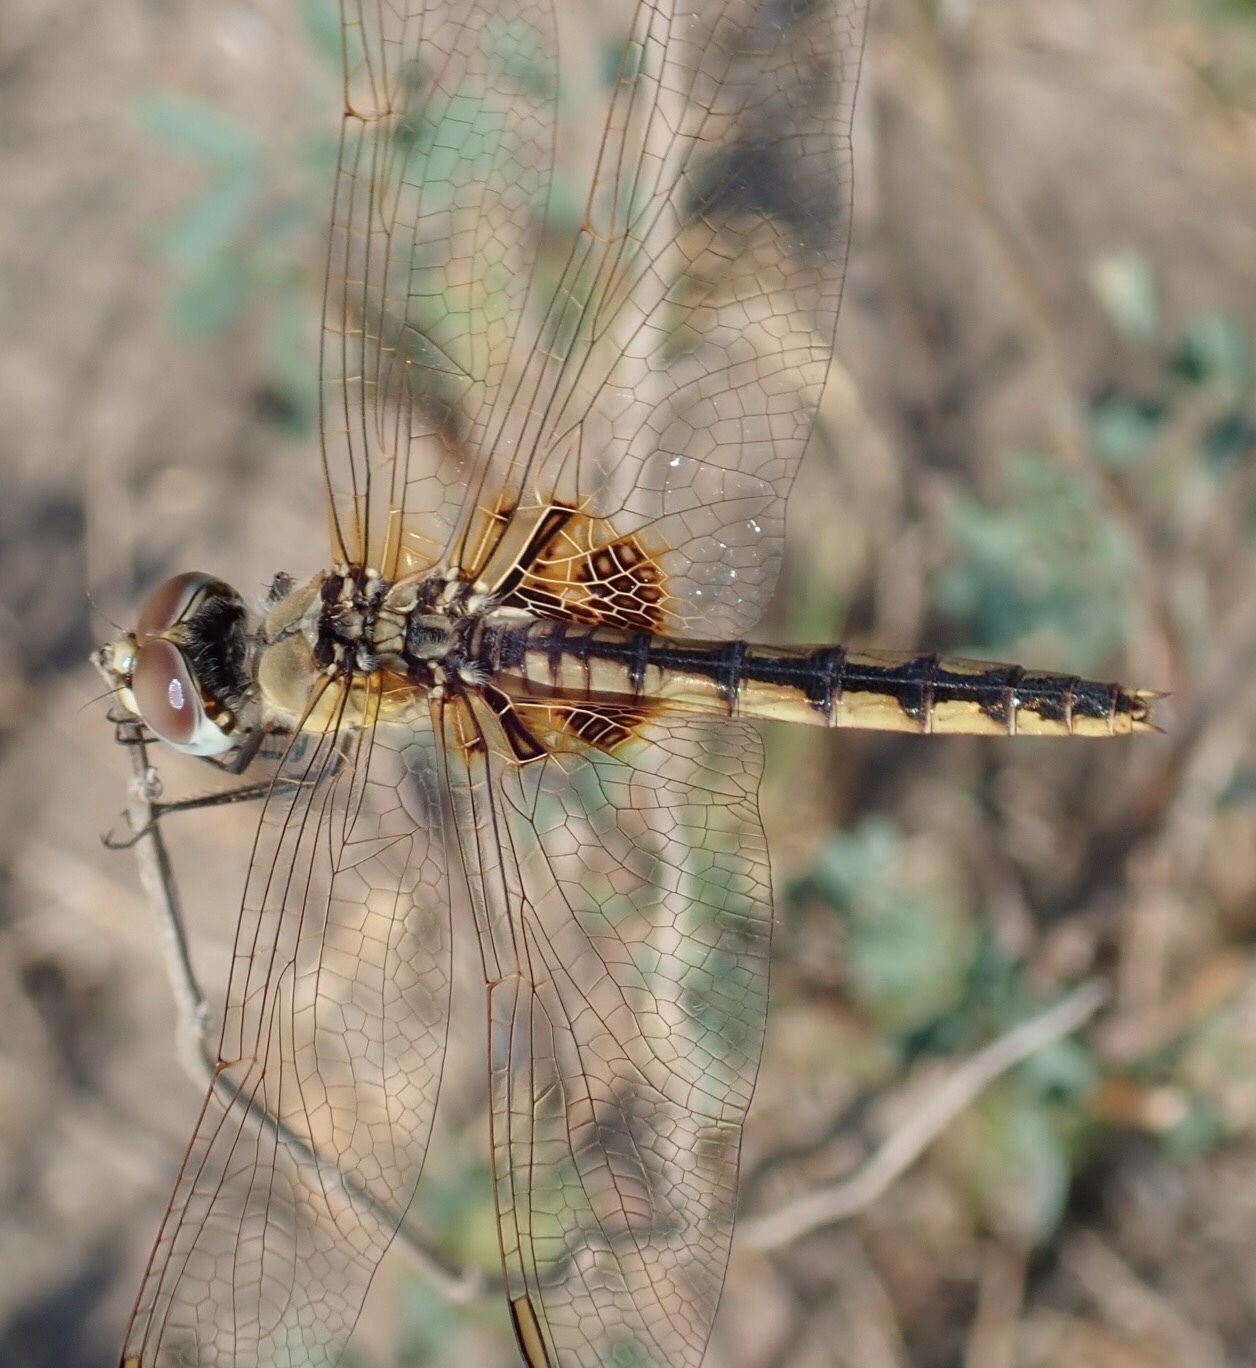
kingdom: Animalia
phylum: Arthropoda
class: Insecta
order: Odonata
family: Libellulidae
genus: Urothemis
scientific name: Urothemis edwardsii
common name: Blue basker
